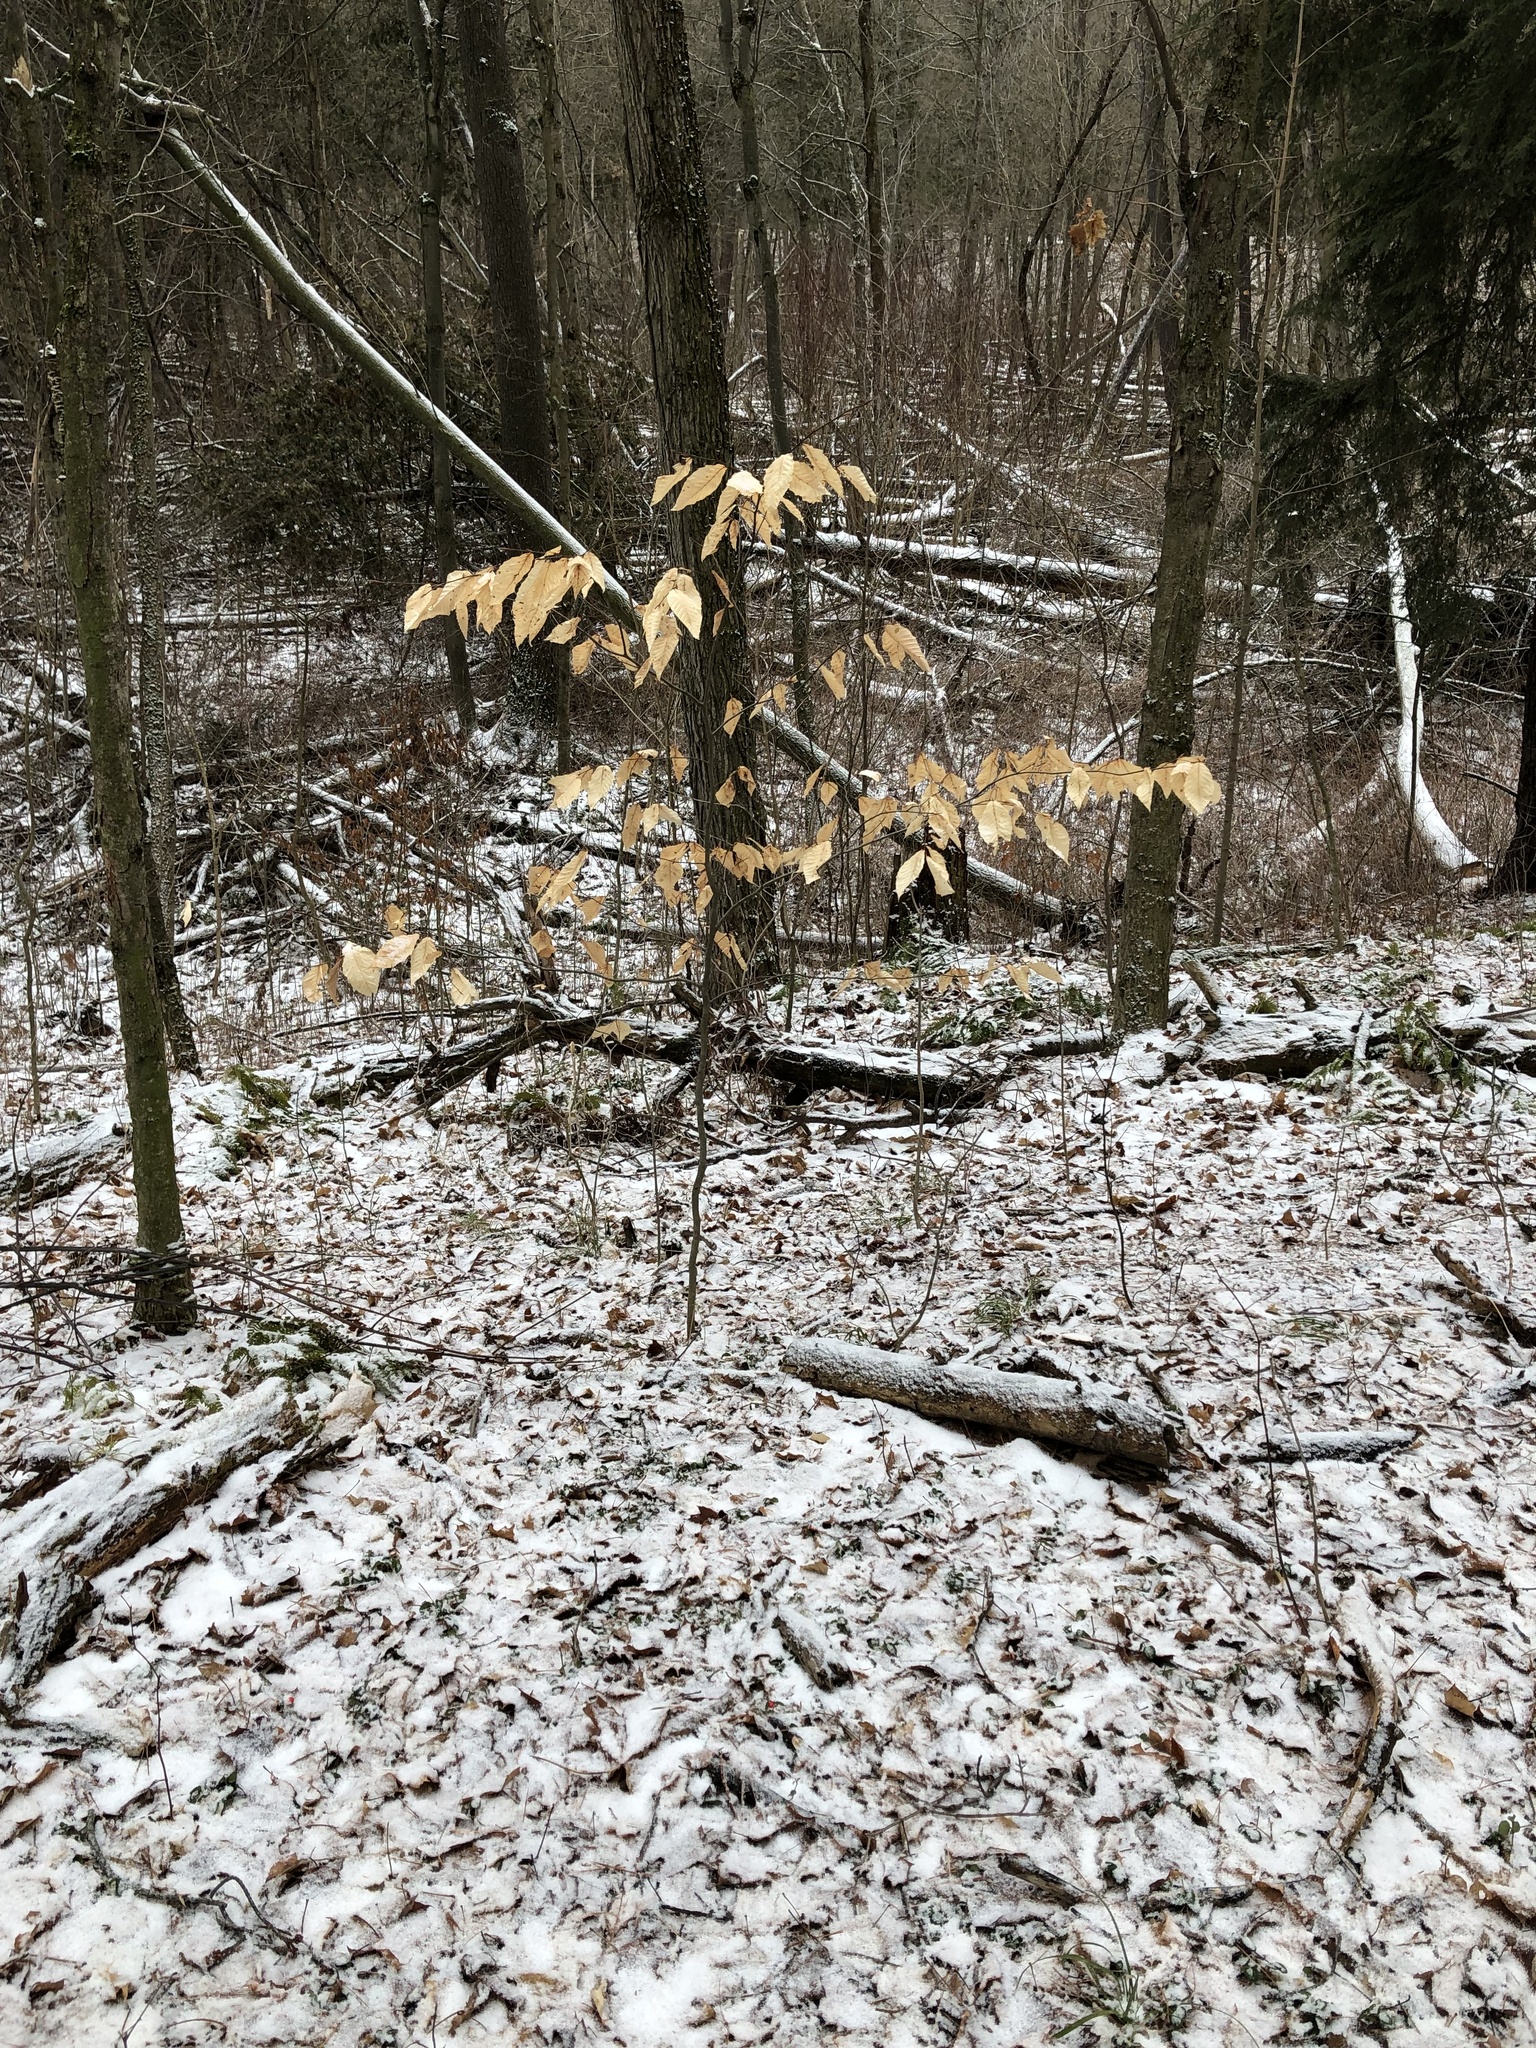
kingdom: Plantae
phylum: Tracheophyta
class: Magnoliopsida
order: Fagales
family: Fagaceae
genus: Fagus
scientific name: Fagus grandifolia
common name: American beech
